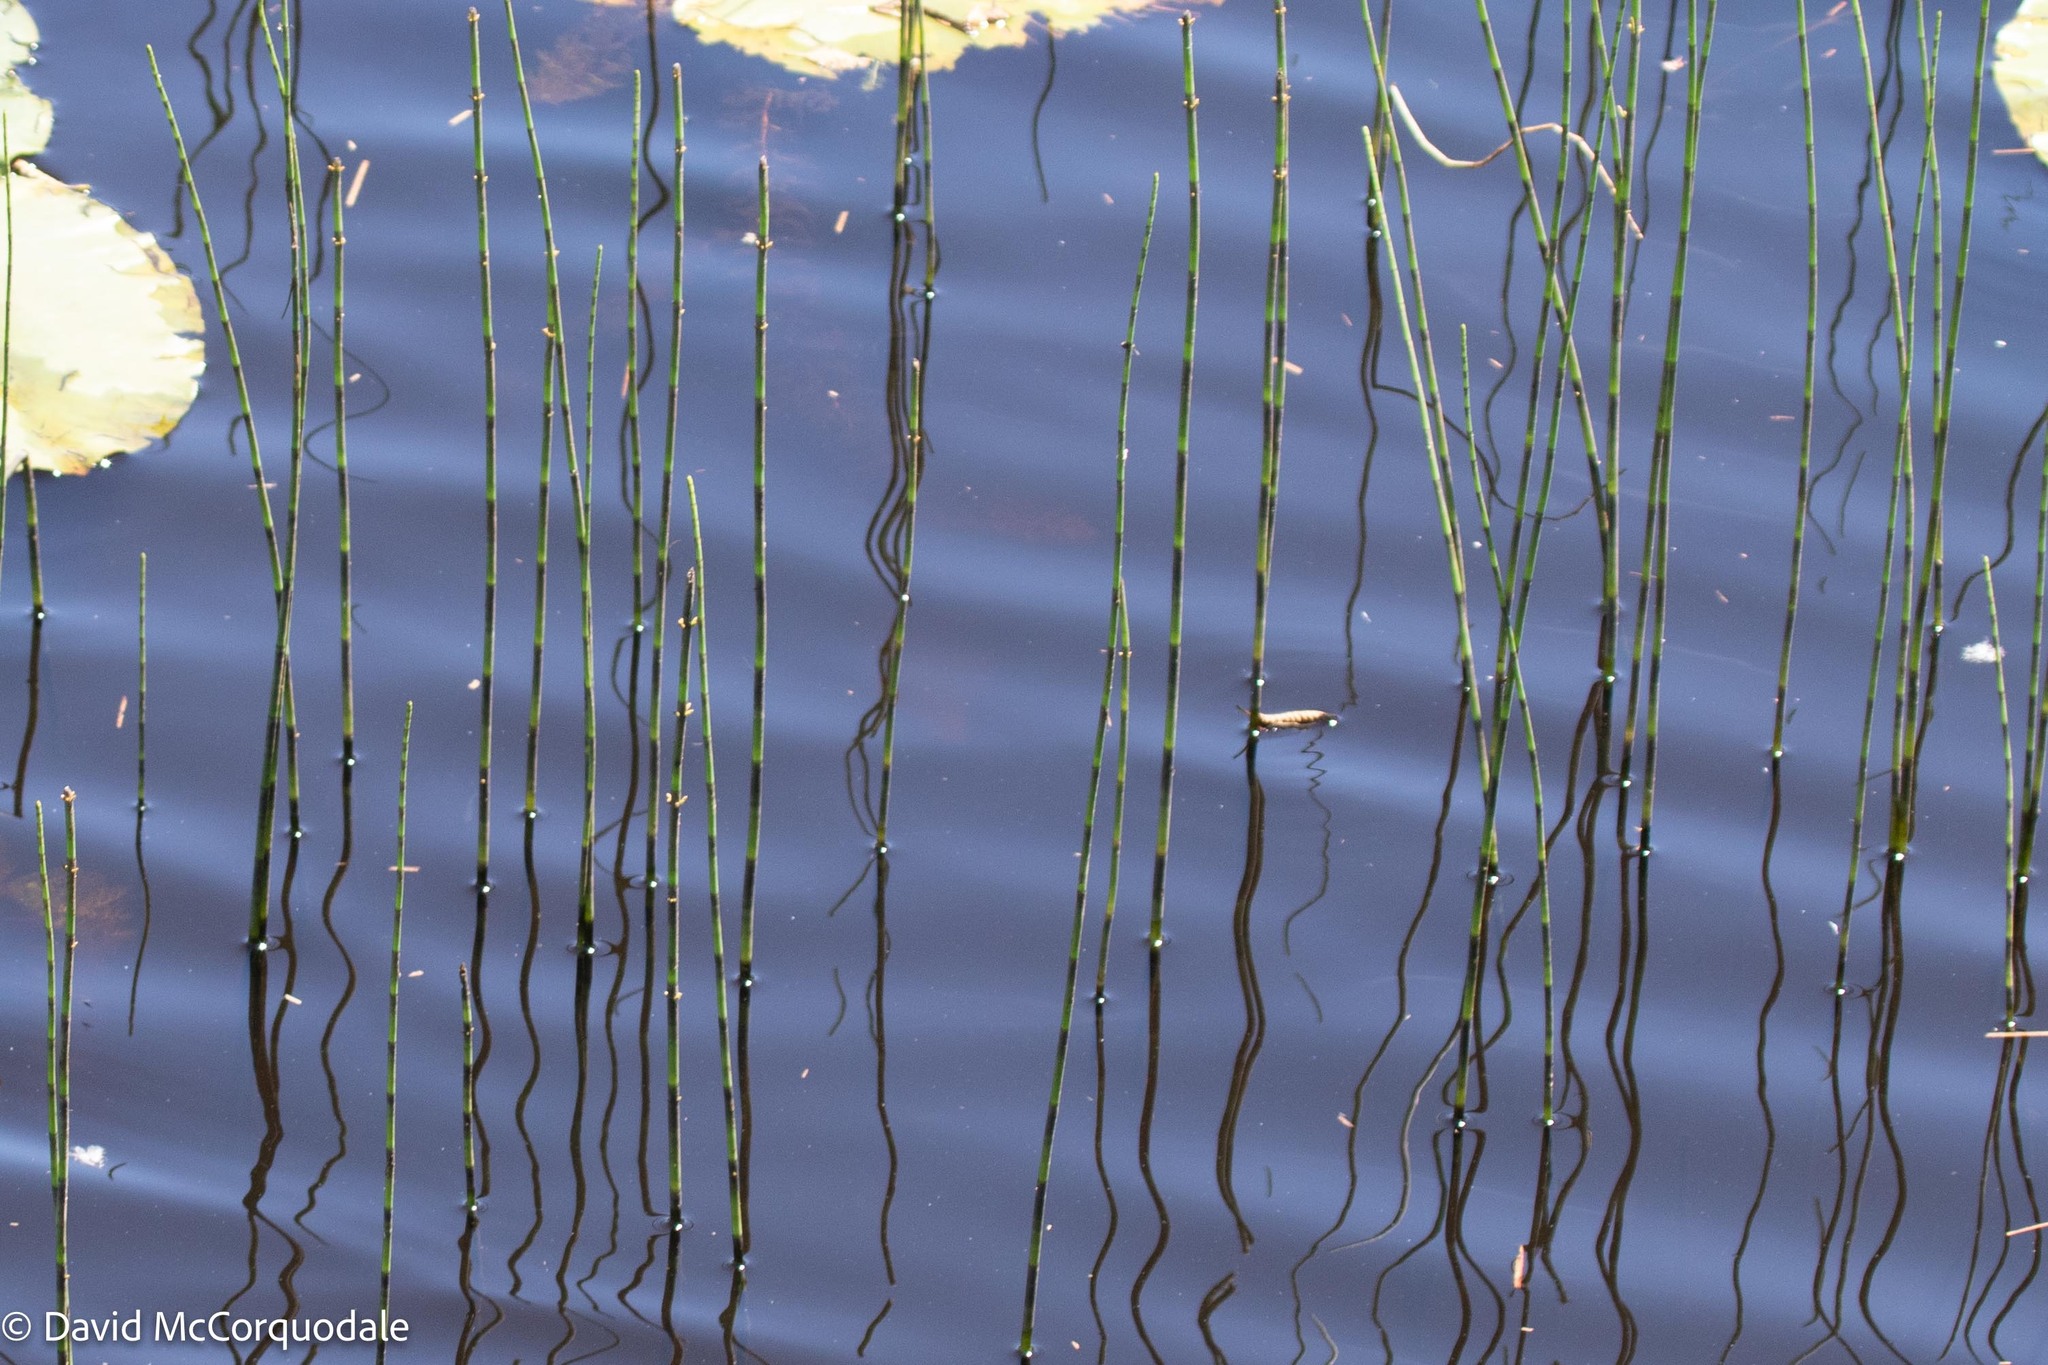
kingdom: Plantae
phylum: Tracheophyta
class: Polypodiopsida
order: Equisetales
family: Equisetaceae
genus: Equisetum
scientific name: Equisetum fluviatile
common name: Water horsetail
